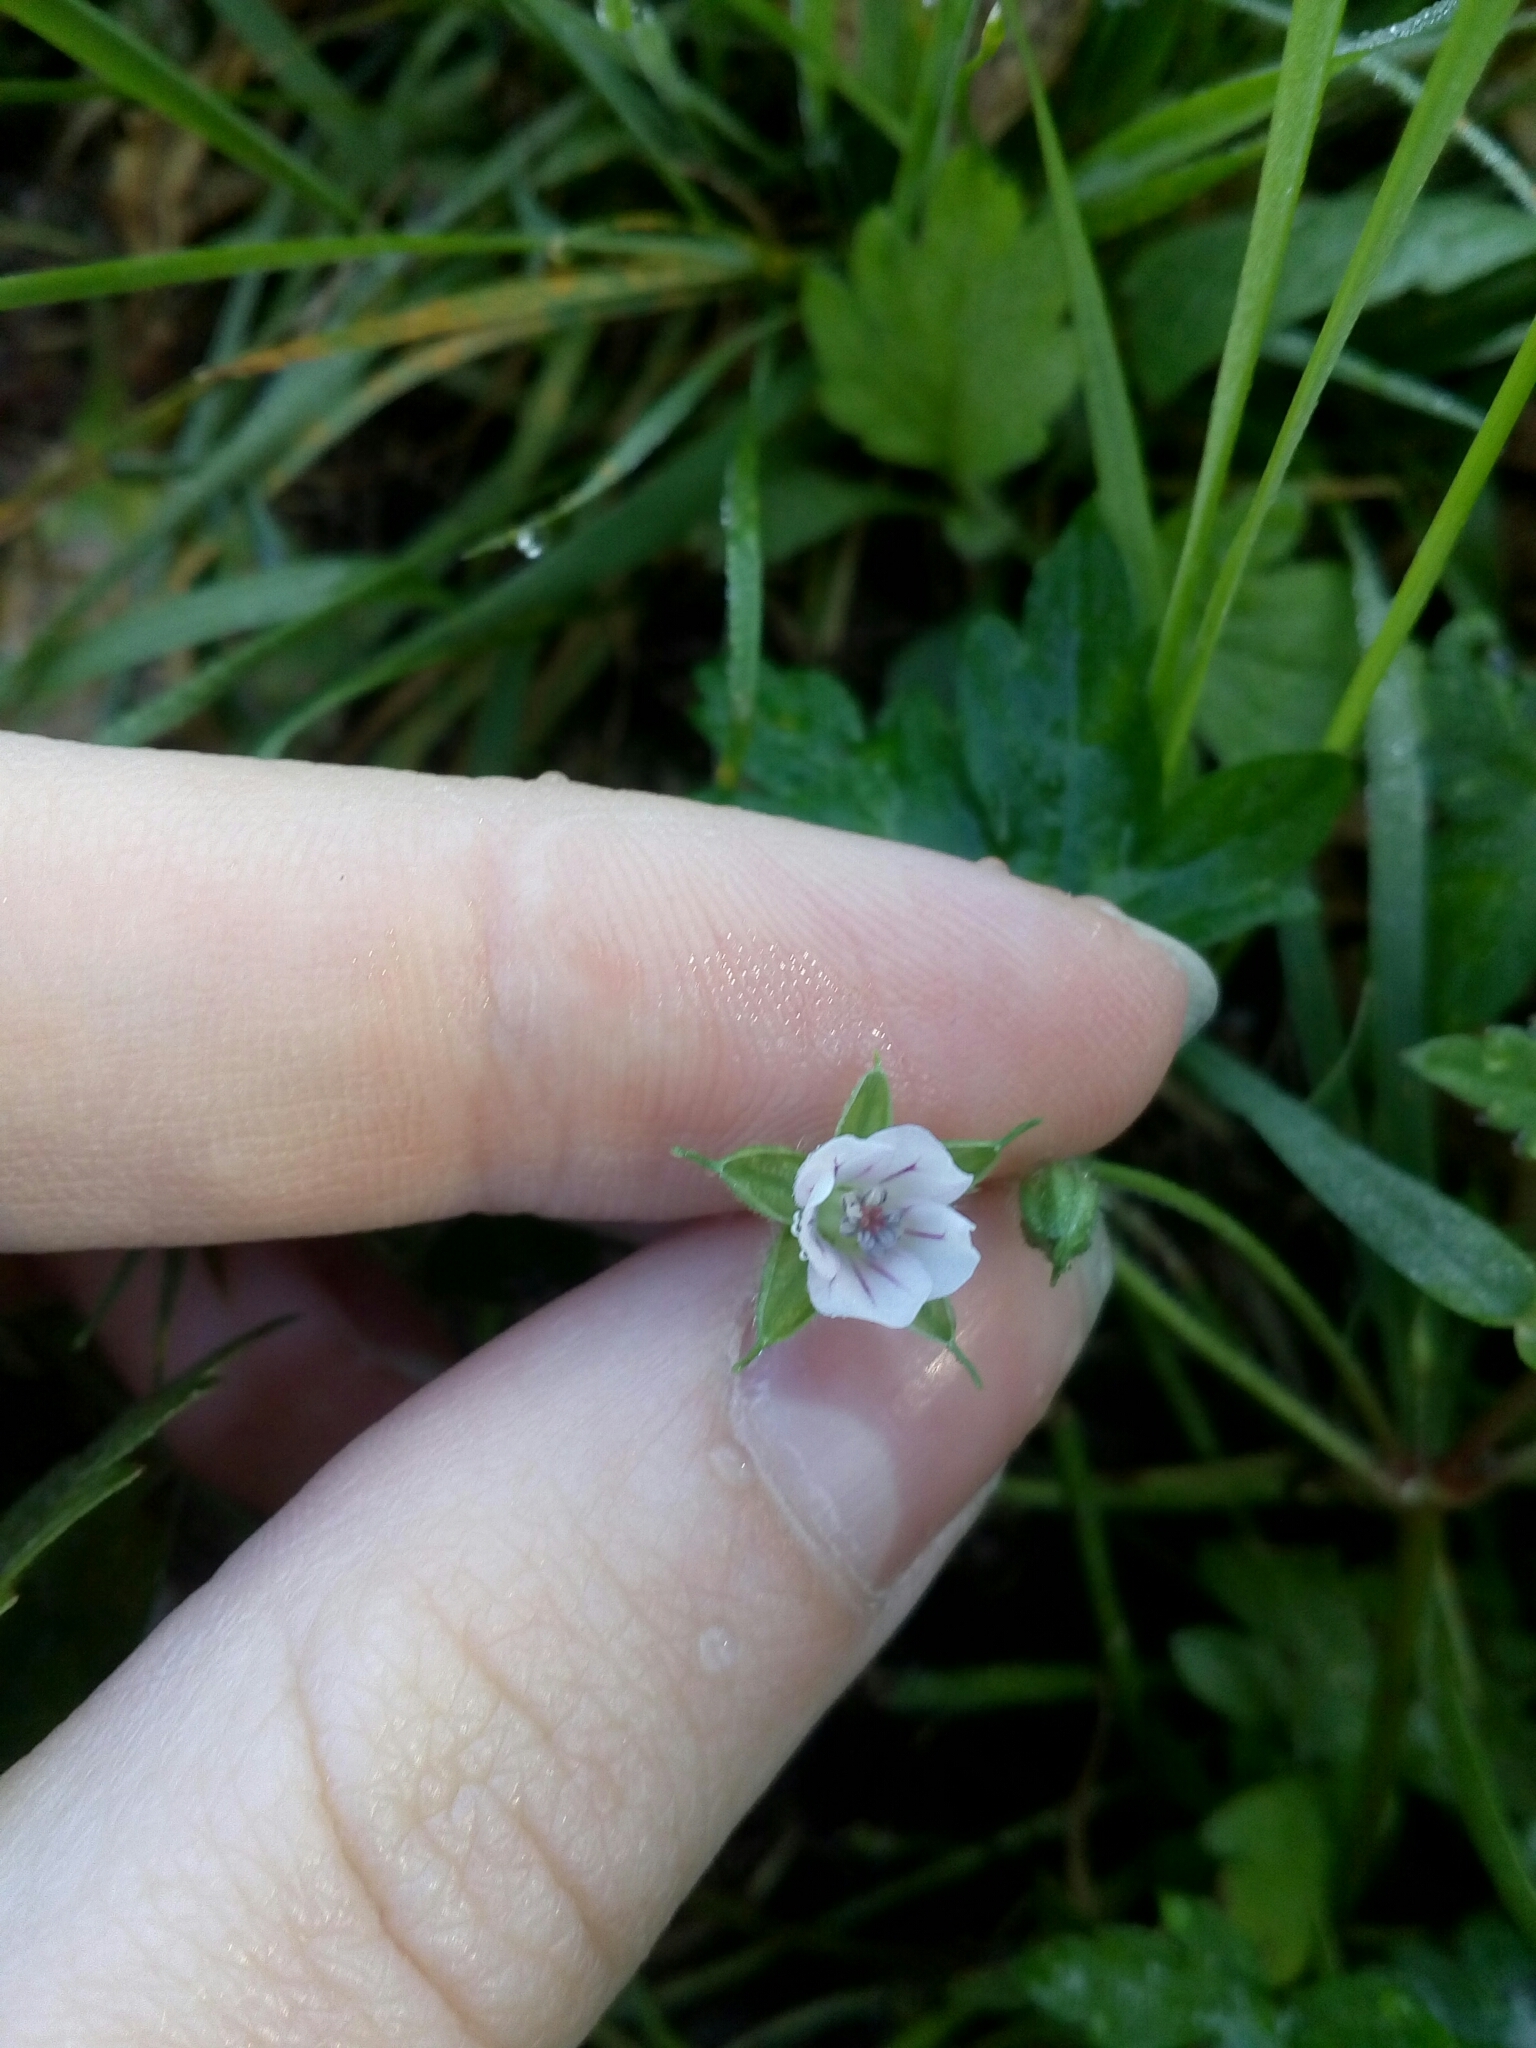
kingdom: Plantae
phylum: Tracheophyta
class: Magnoliopsida
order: Geraniales
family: Geraniaceae
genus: Geranium
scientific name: Geranium sibiricum
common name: Siberian crane's-bill
